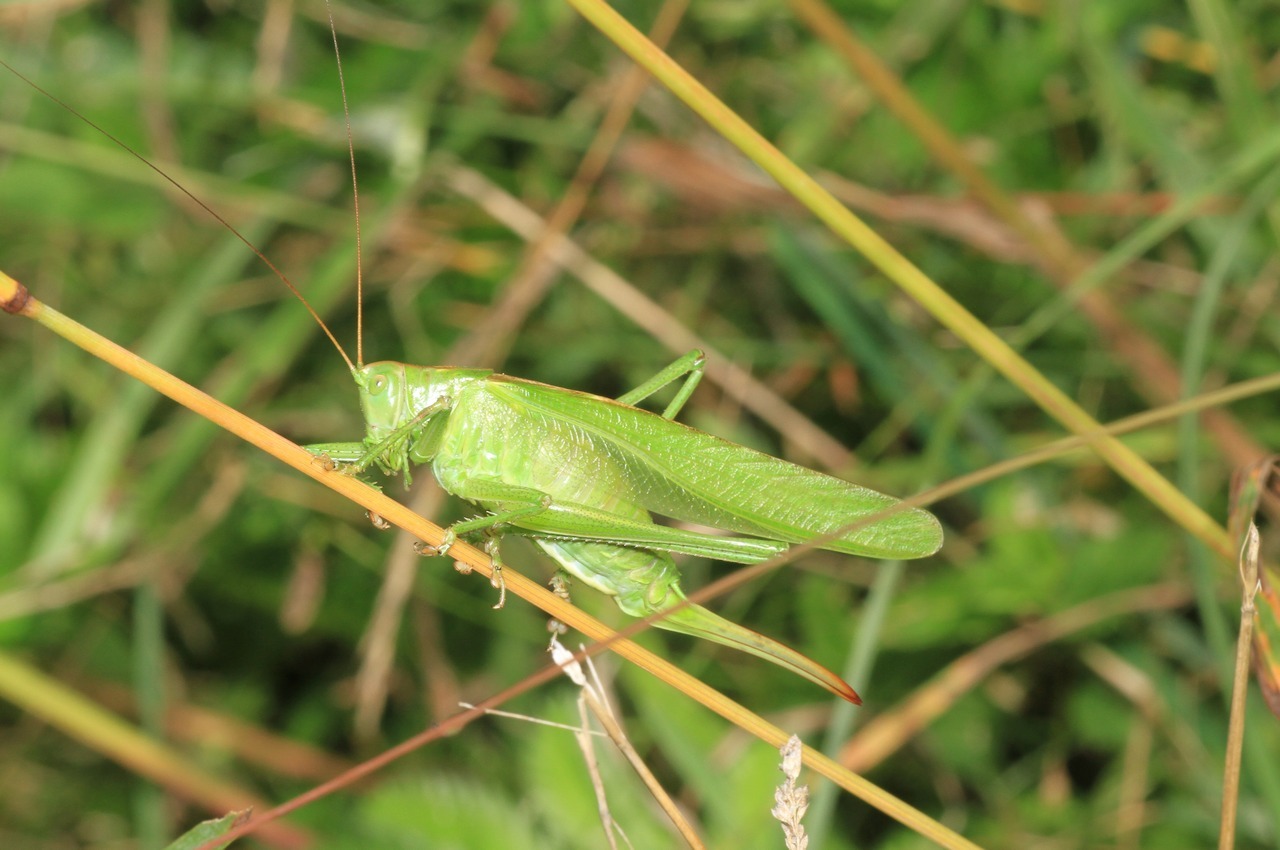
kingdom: Animalia
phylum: Arthropoda
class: Insecta
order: Orthoptera
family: Tettigoniidae
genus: Tettigonia
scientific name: Tettigonia viridissima
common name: Great green bush-cricket
